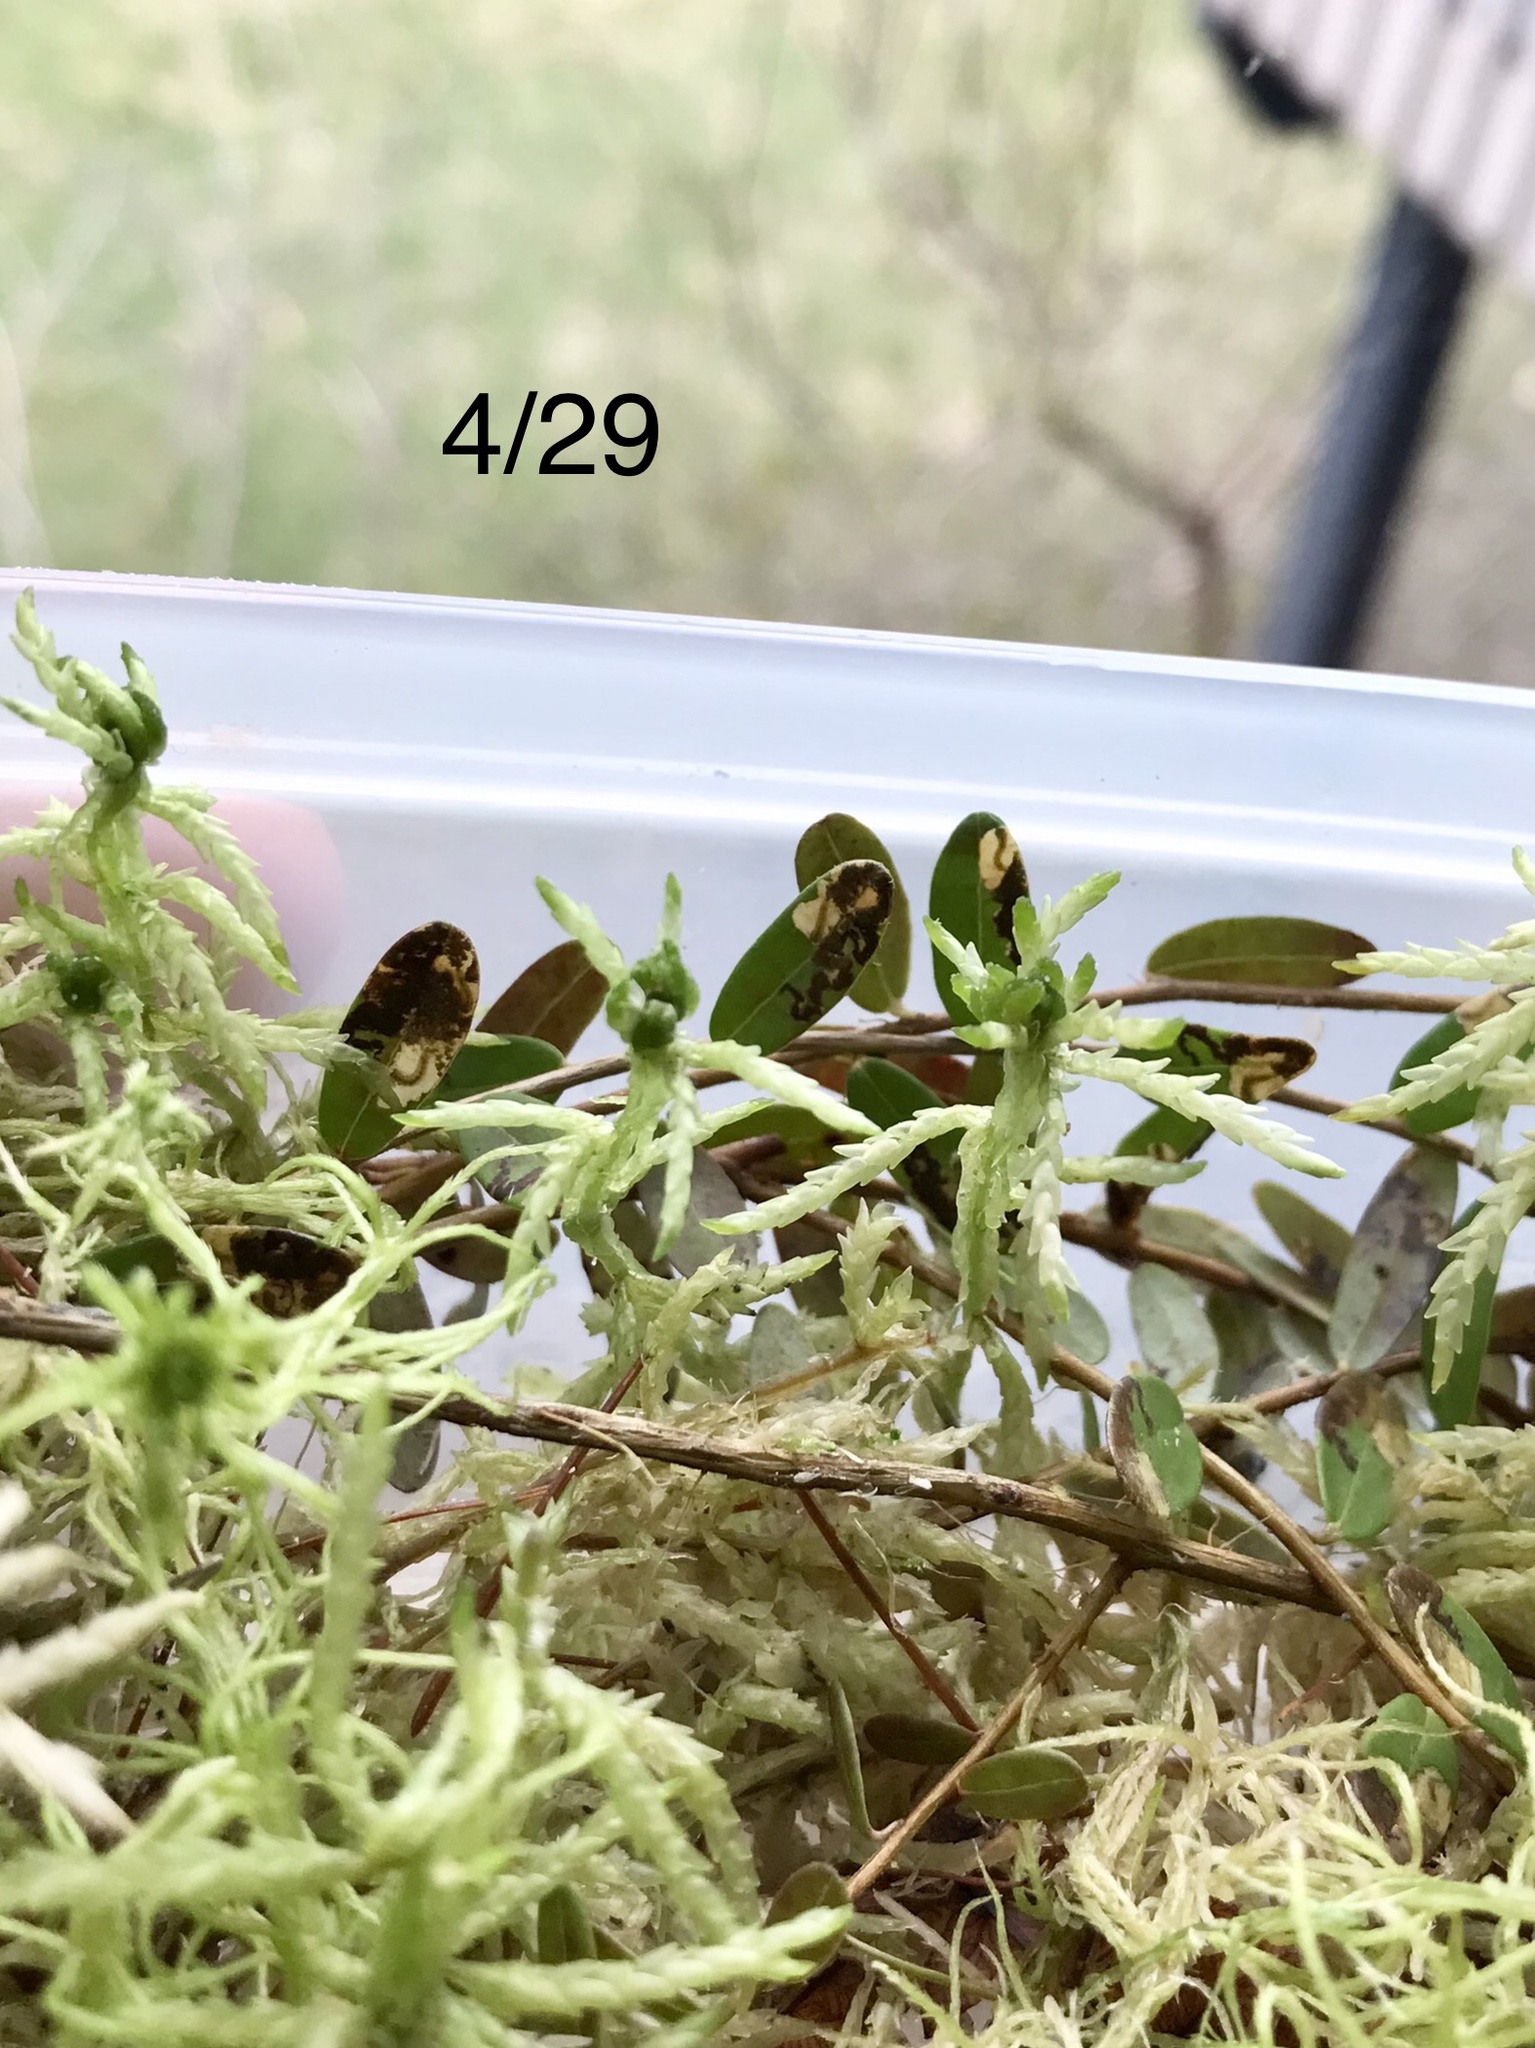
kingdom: Animalia
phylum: Arthropoda
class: Insecta
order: Lepidoptera
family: Heliozelidae
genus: Coptodisca
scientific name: Coptodisca negligens
